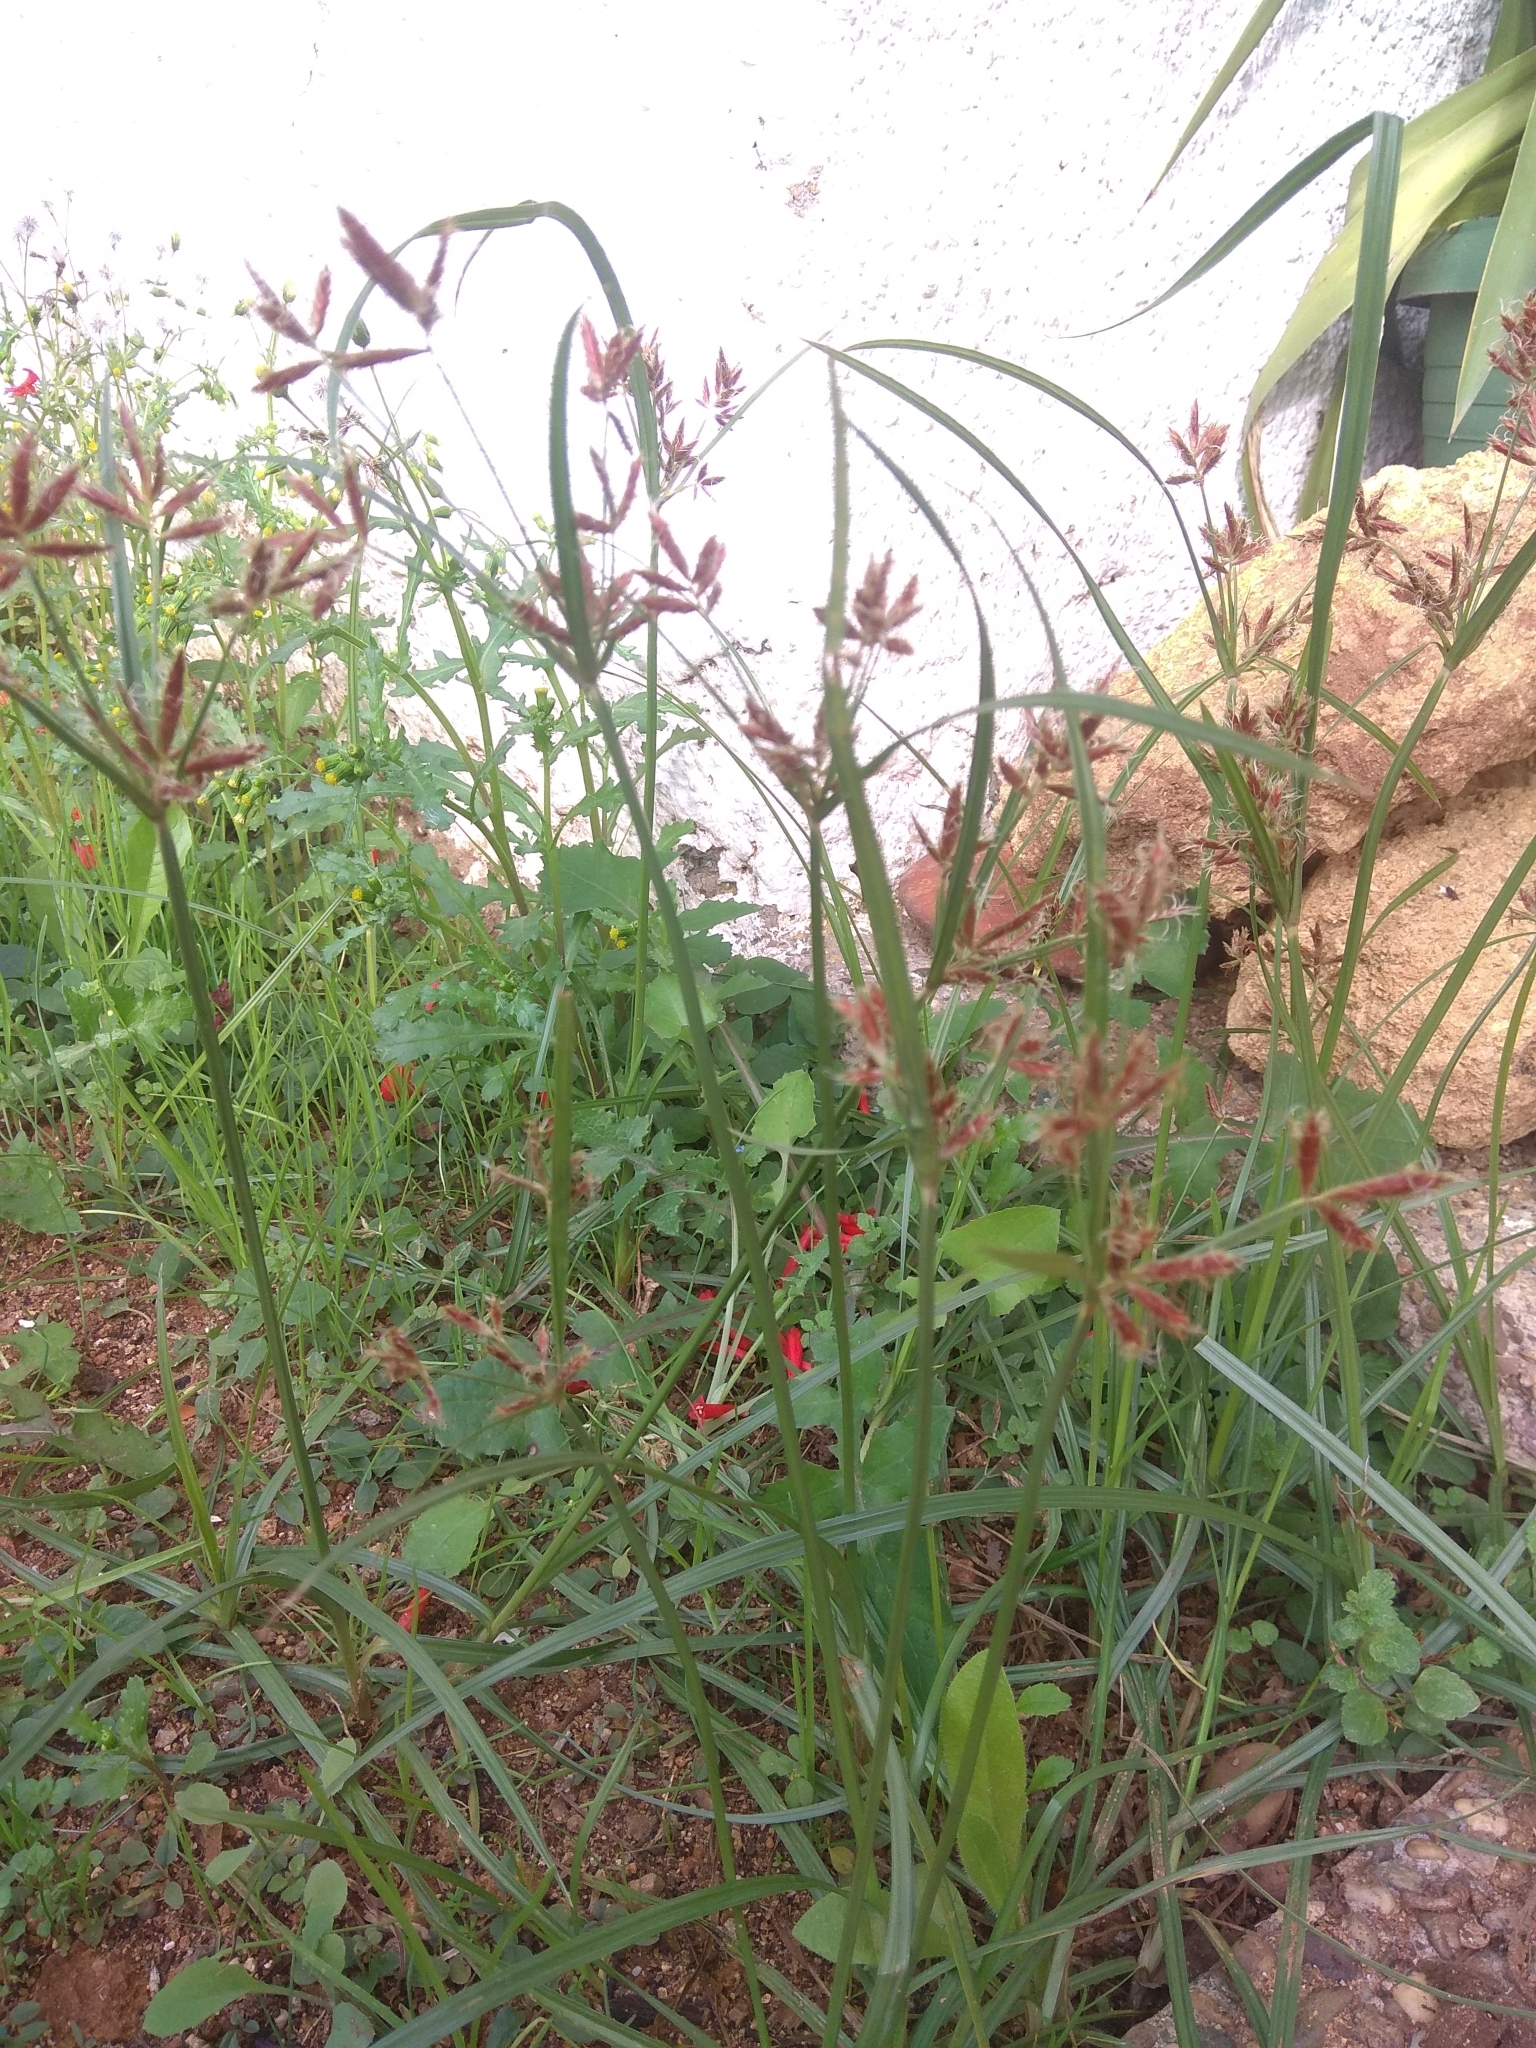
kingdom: Plantae
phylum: Tracheophyta
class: Liliopsida
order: Poales
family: Cyperaceae
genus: Cyperus
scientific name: Cyperus rotundus
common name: Nutgrass
